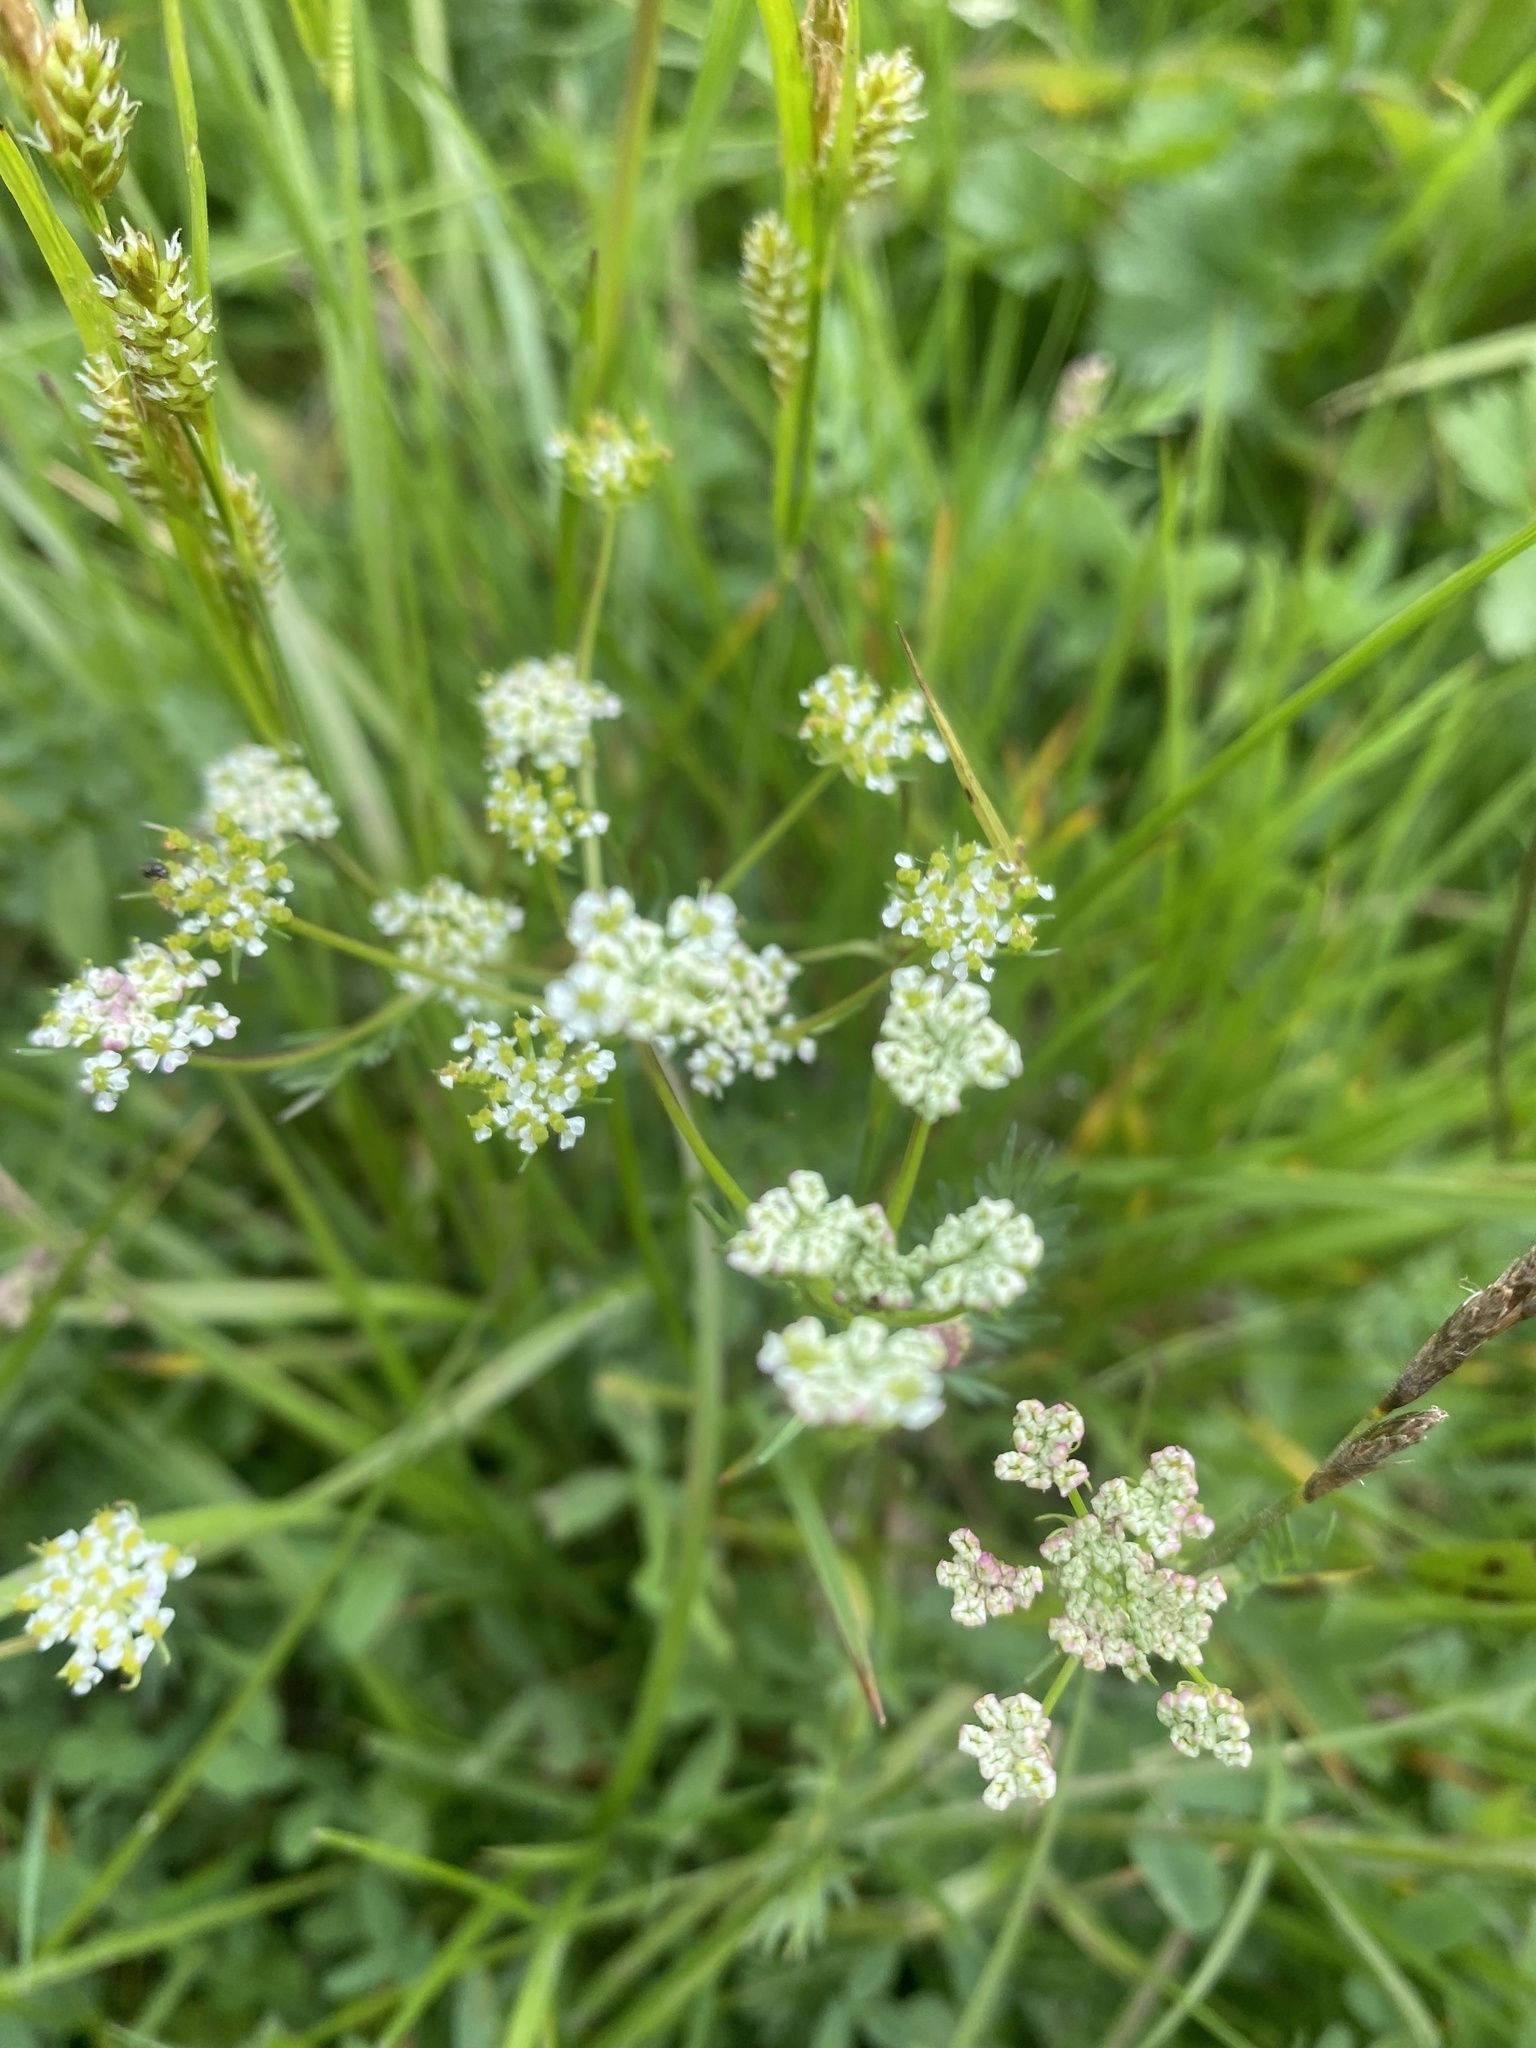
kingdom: Plantae
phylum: Tracheophyta
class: Magnoliopsida
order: Apiales
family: Apiaceae
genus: Carum
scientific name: Carum caucasicum
